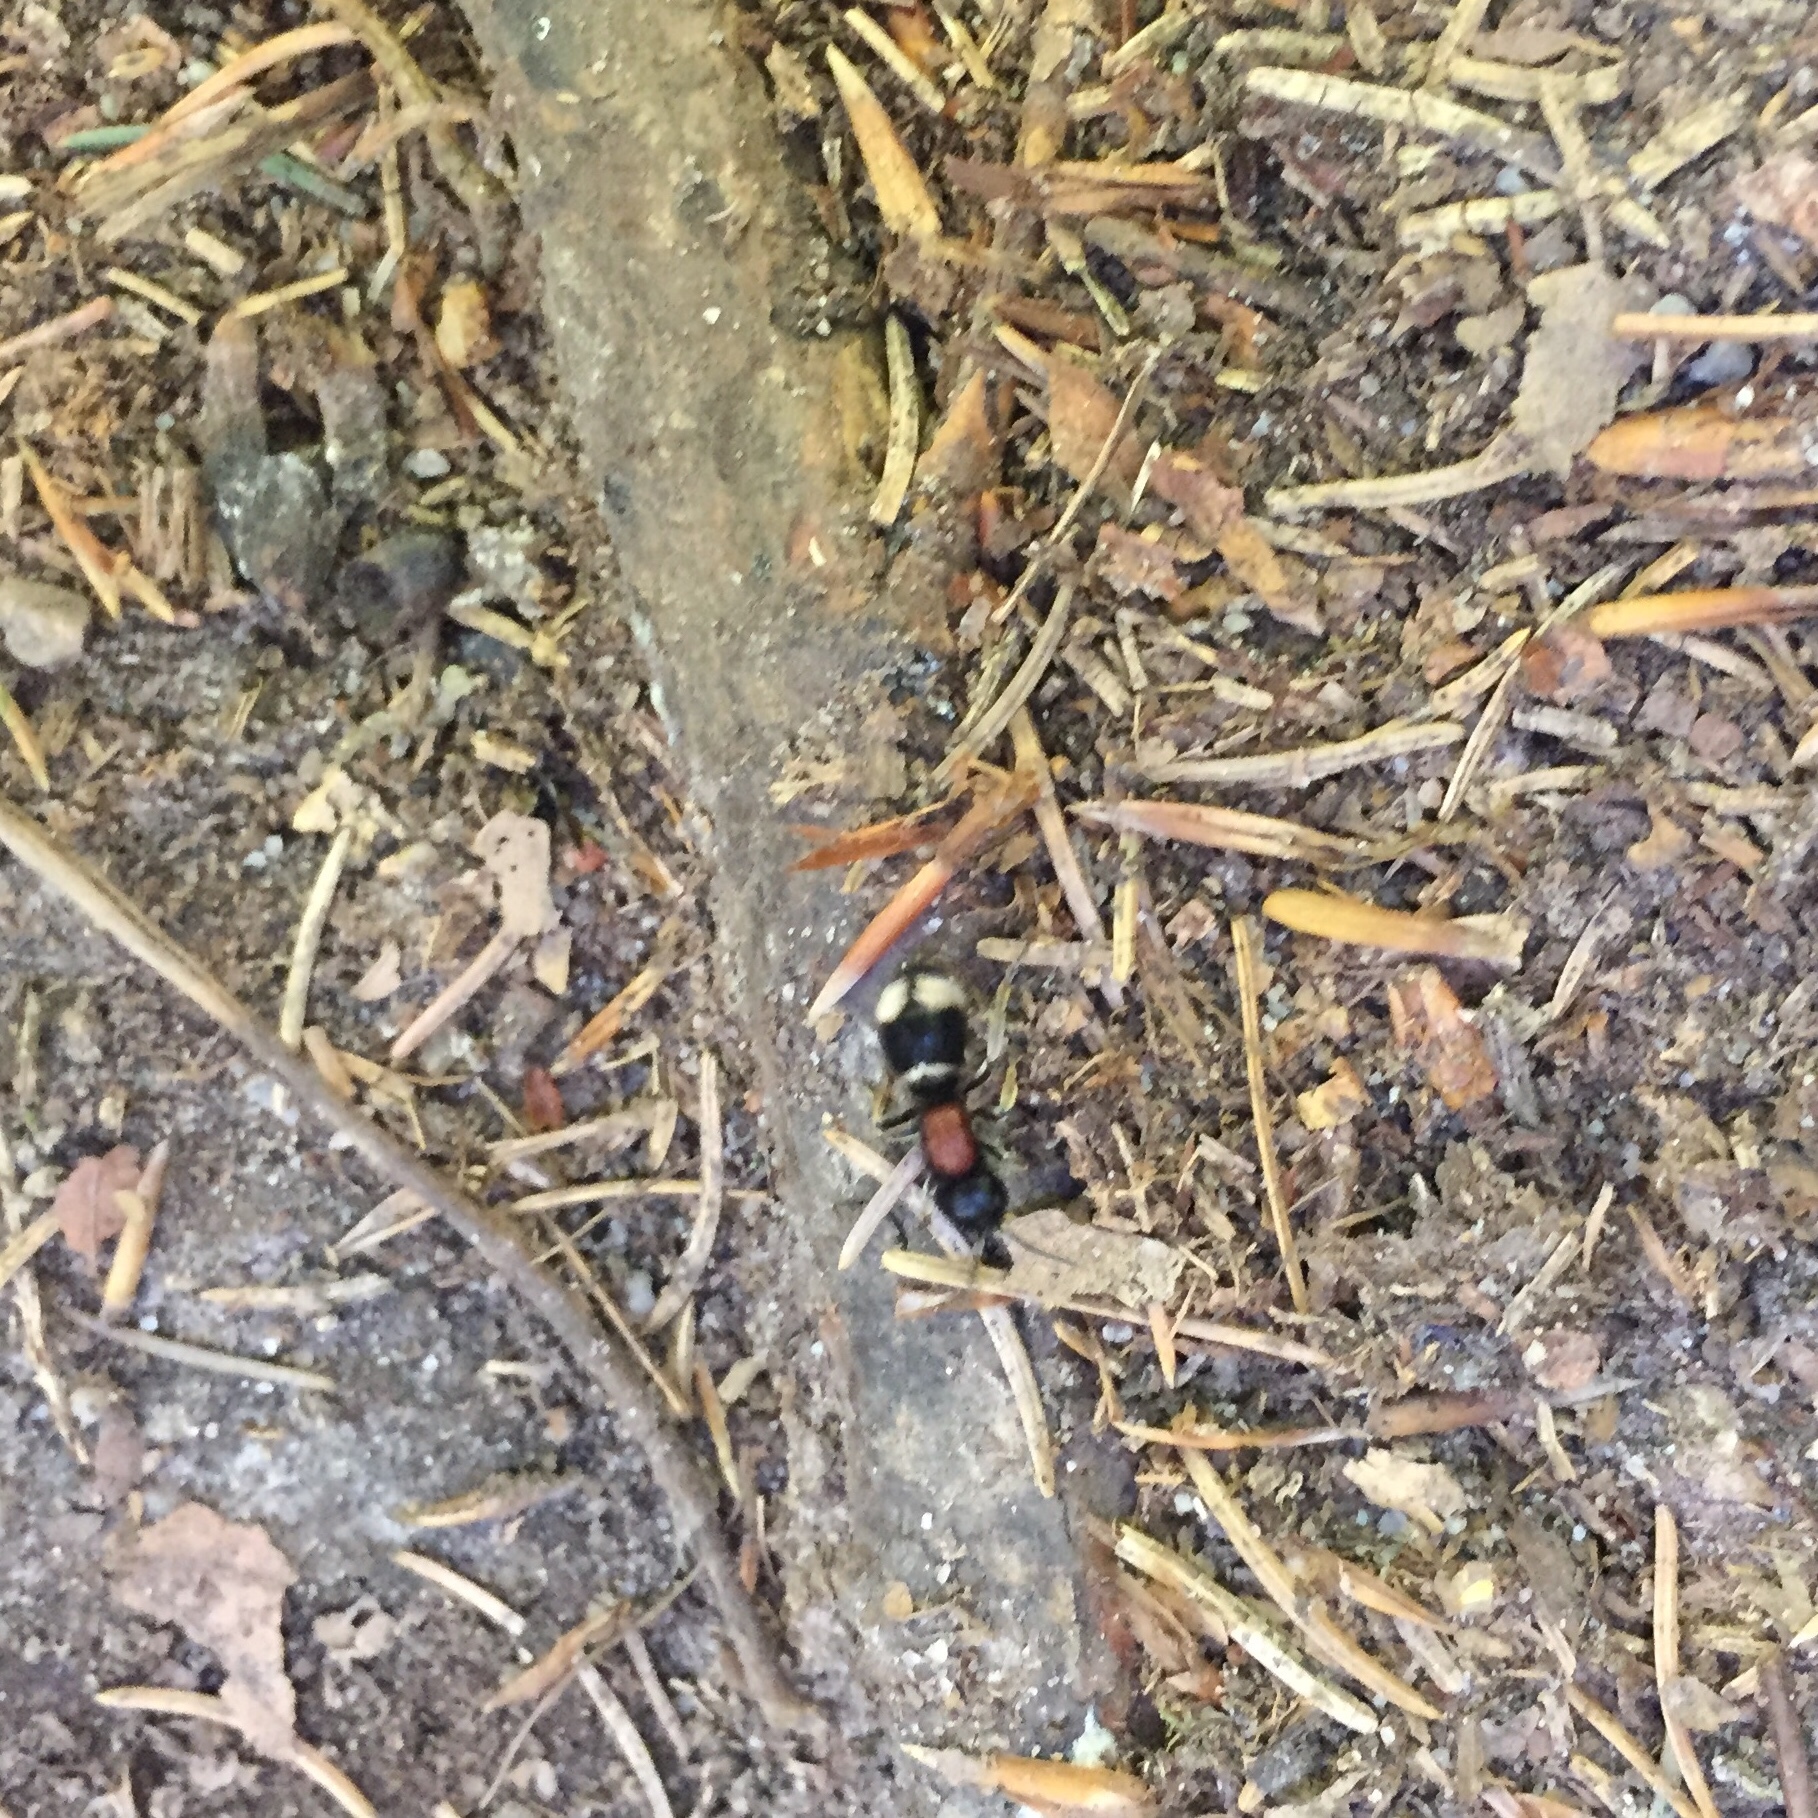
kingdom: Animalia
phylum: Arthropoda
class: Insecta
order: Hymenoptera
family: Mutillidae
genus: Mutilla
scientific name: Mutilla marginata
